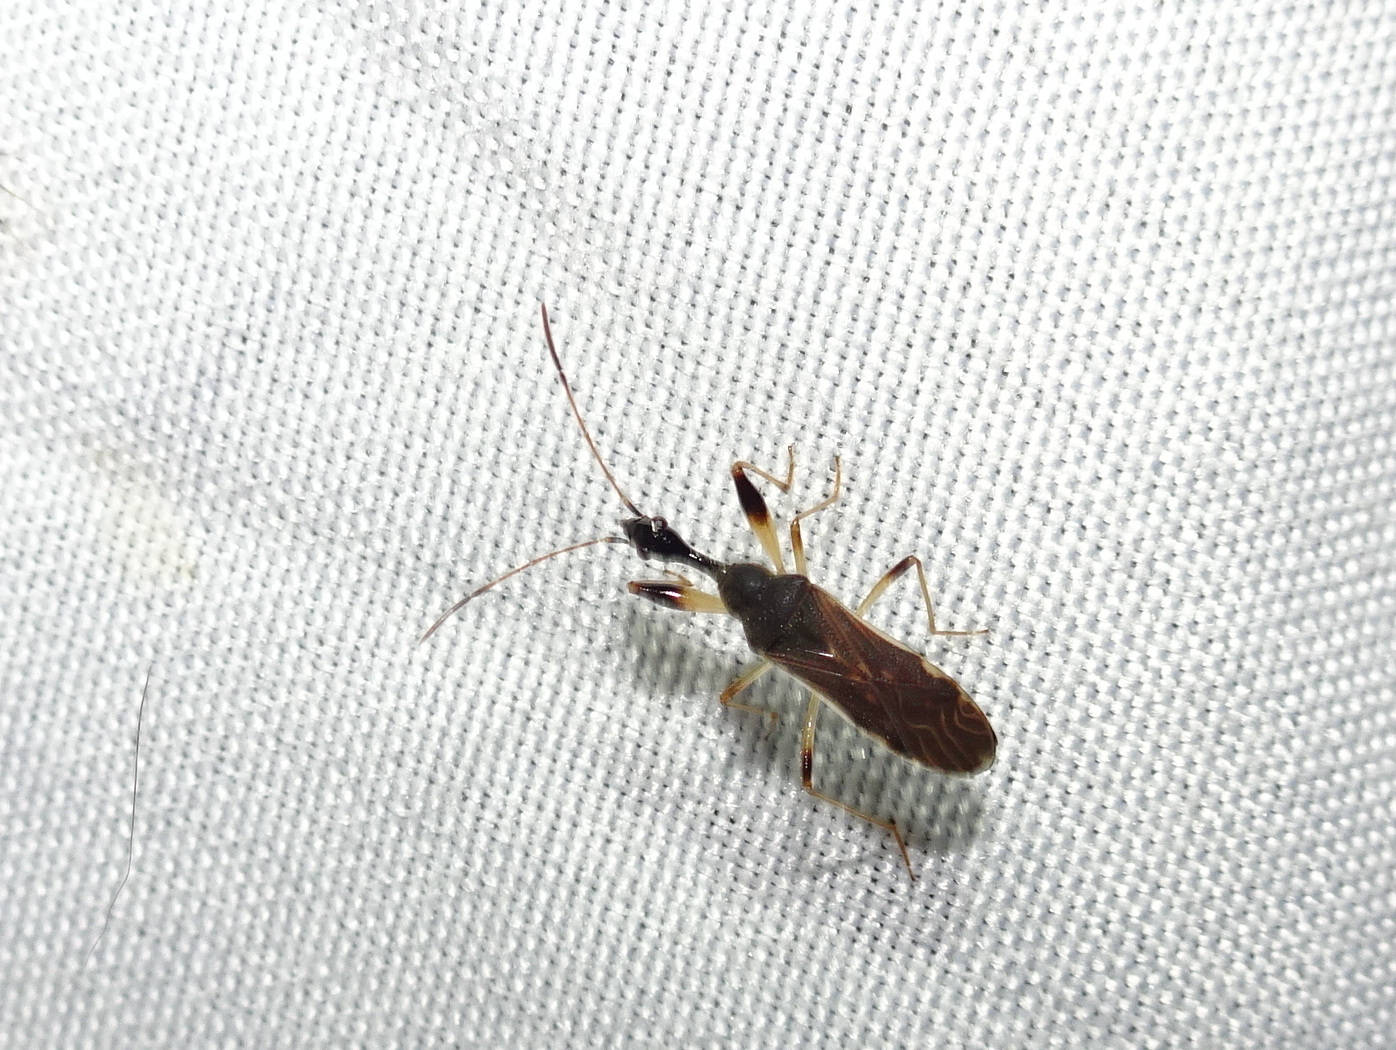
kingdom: Animalia
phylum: Arthropoda
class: Insecta
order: Hemiptera
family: Rhyparochromidae
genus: Myodocha
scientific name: Myodocha serripes
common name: Long-necked seed bug
